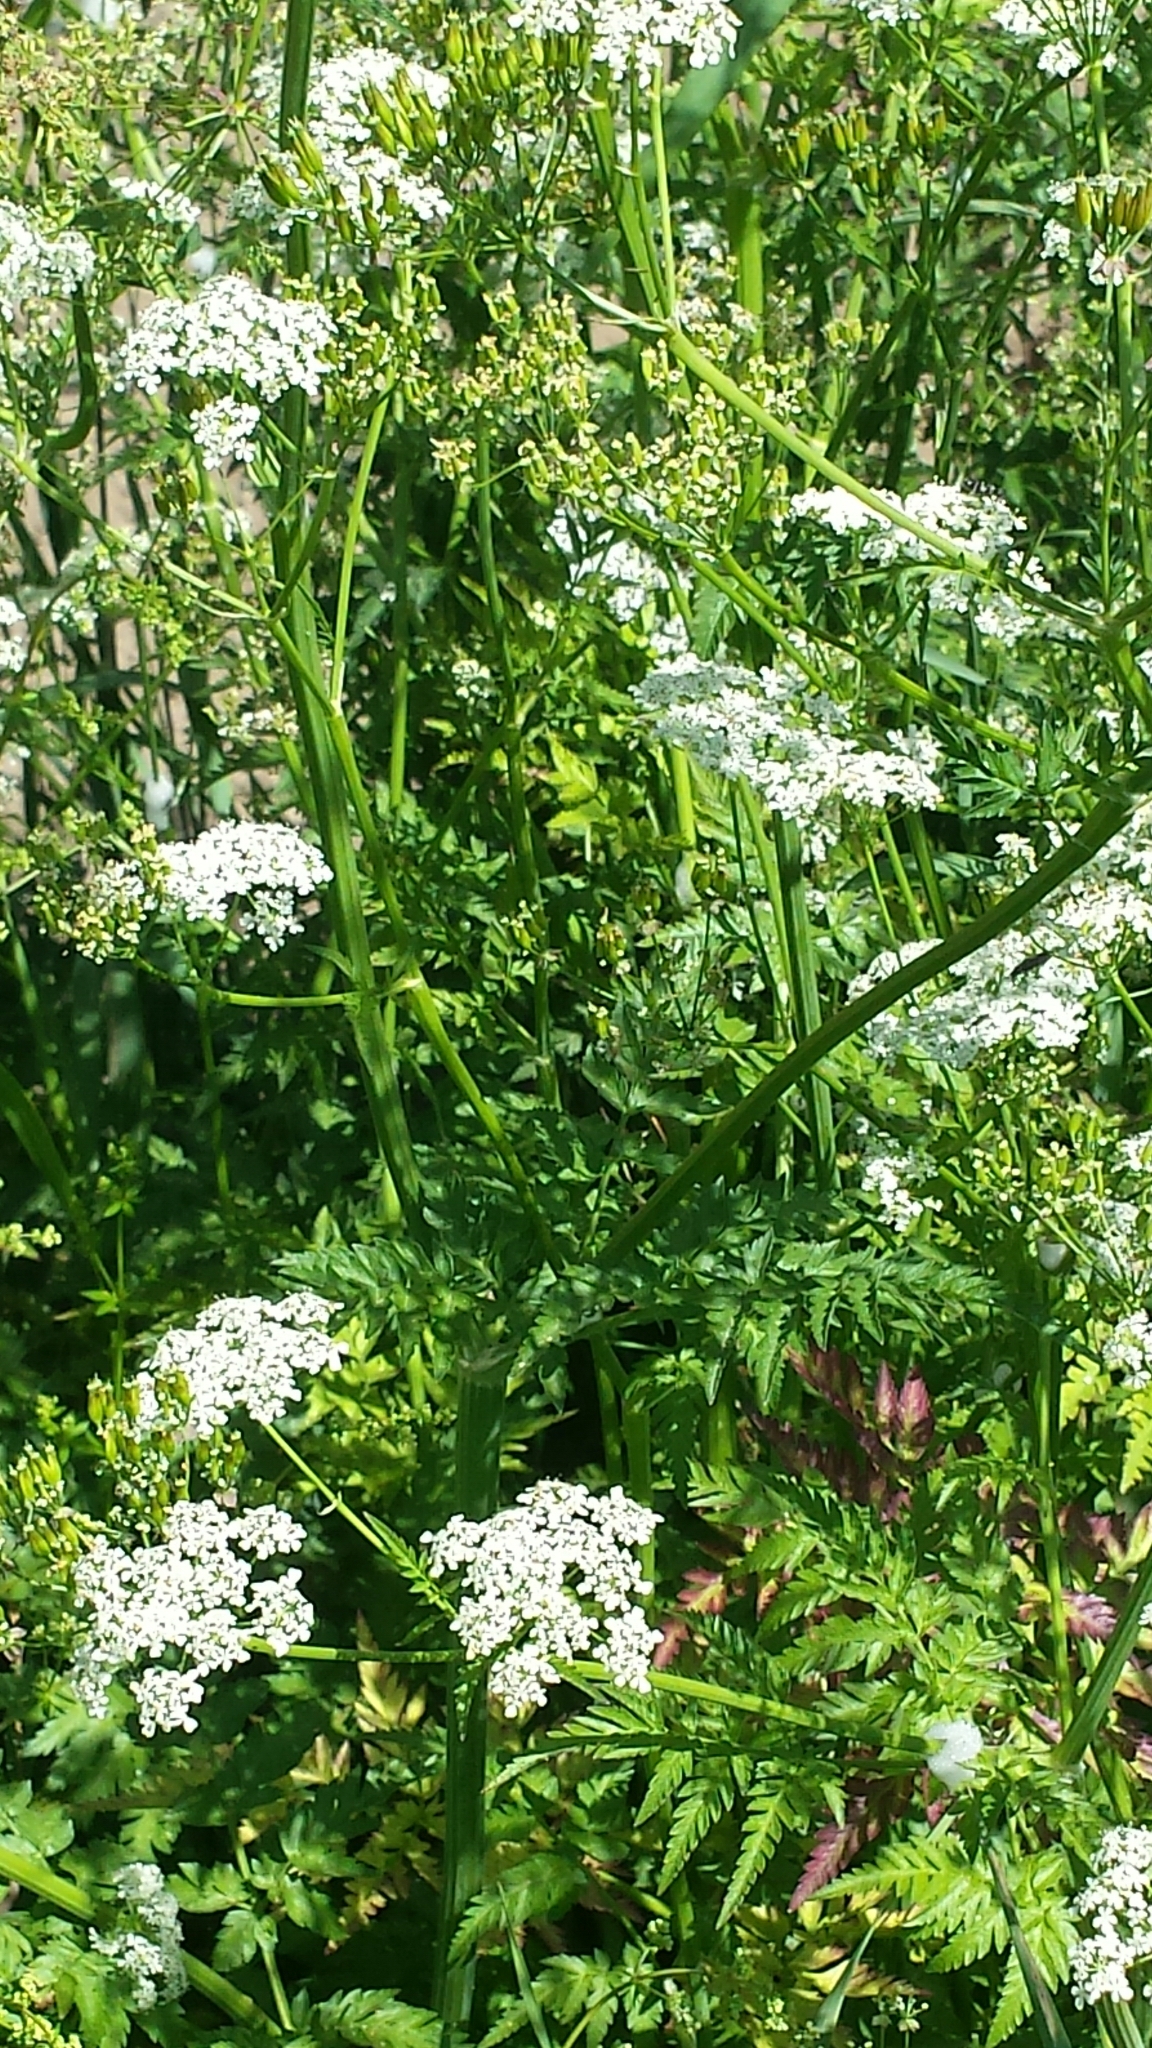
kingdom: Plantae
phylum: Tracheophyta
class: Magnoliopsida
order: Apiales
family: Apiaceae
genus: Anthriscus
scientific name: Anthriscus sylvestris
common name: Cow parsley
